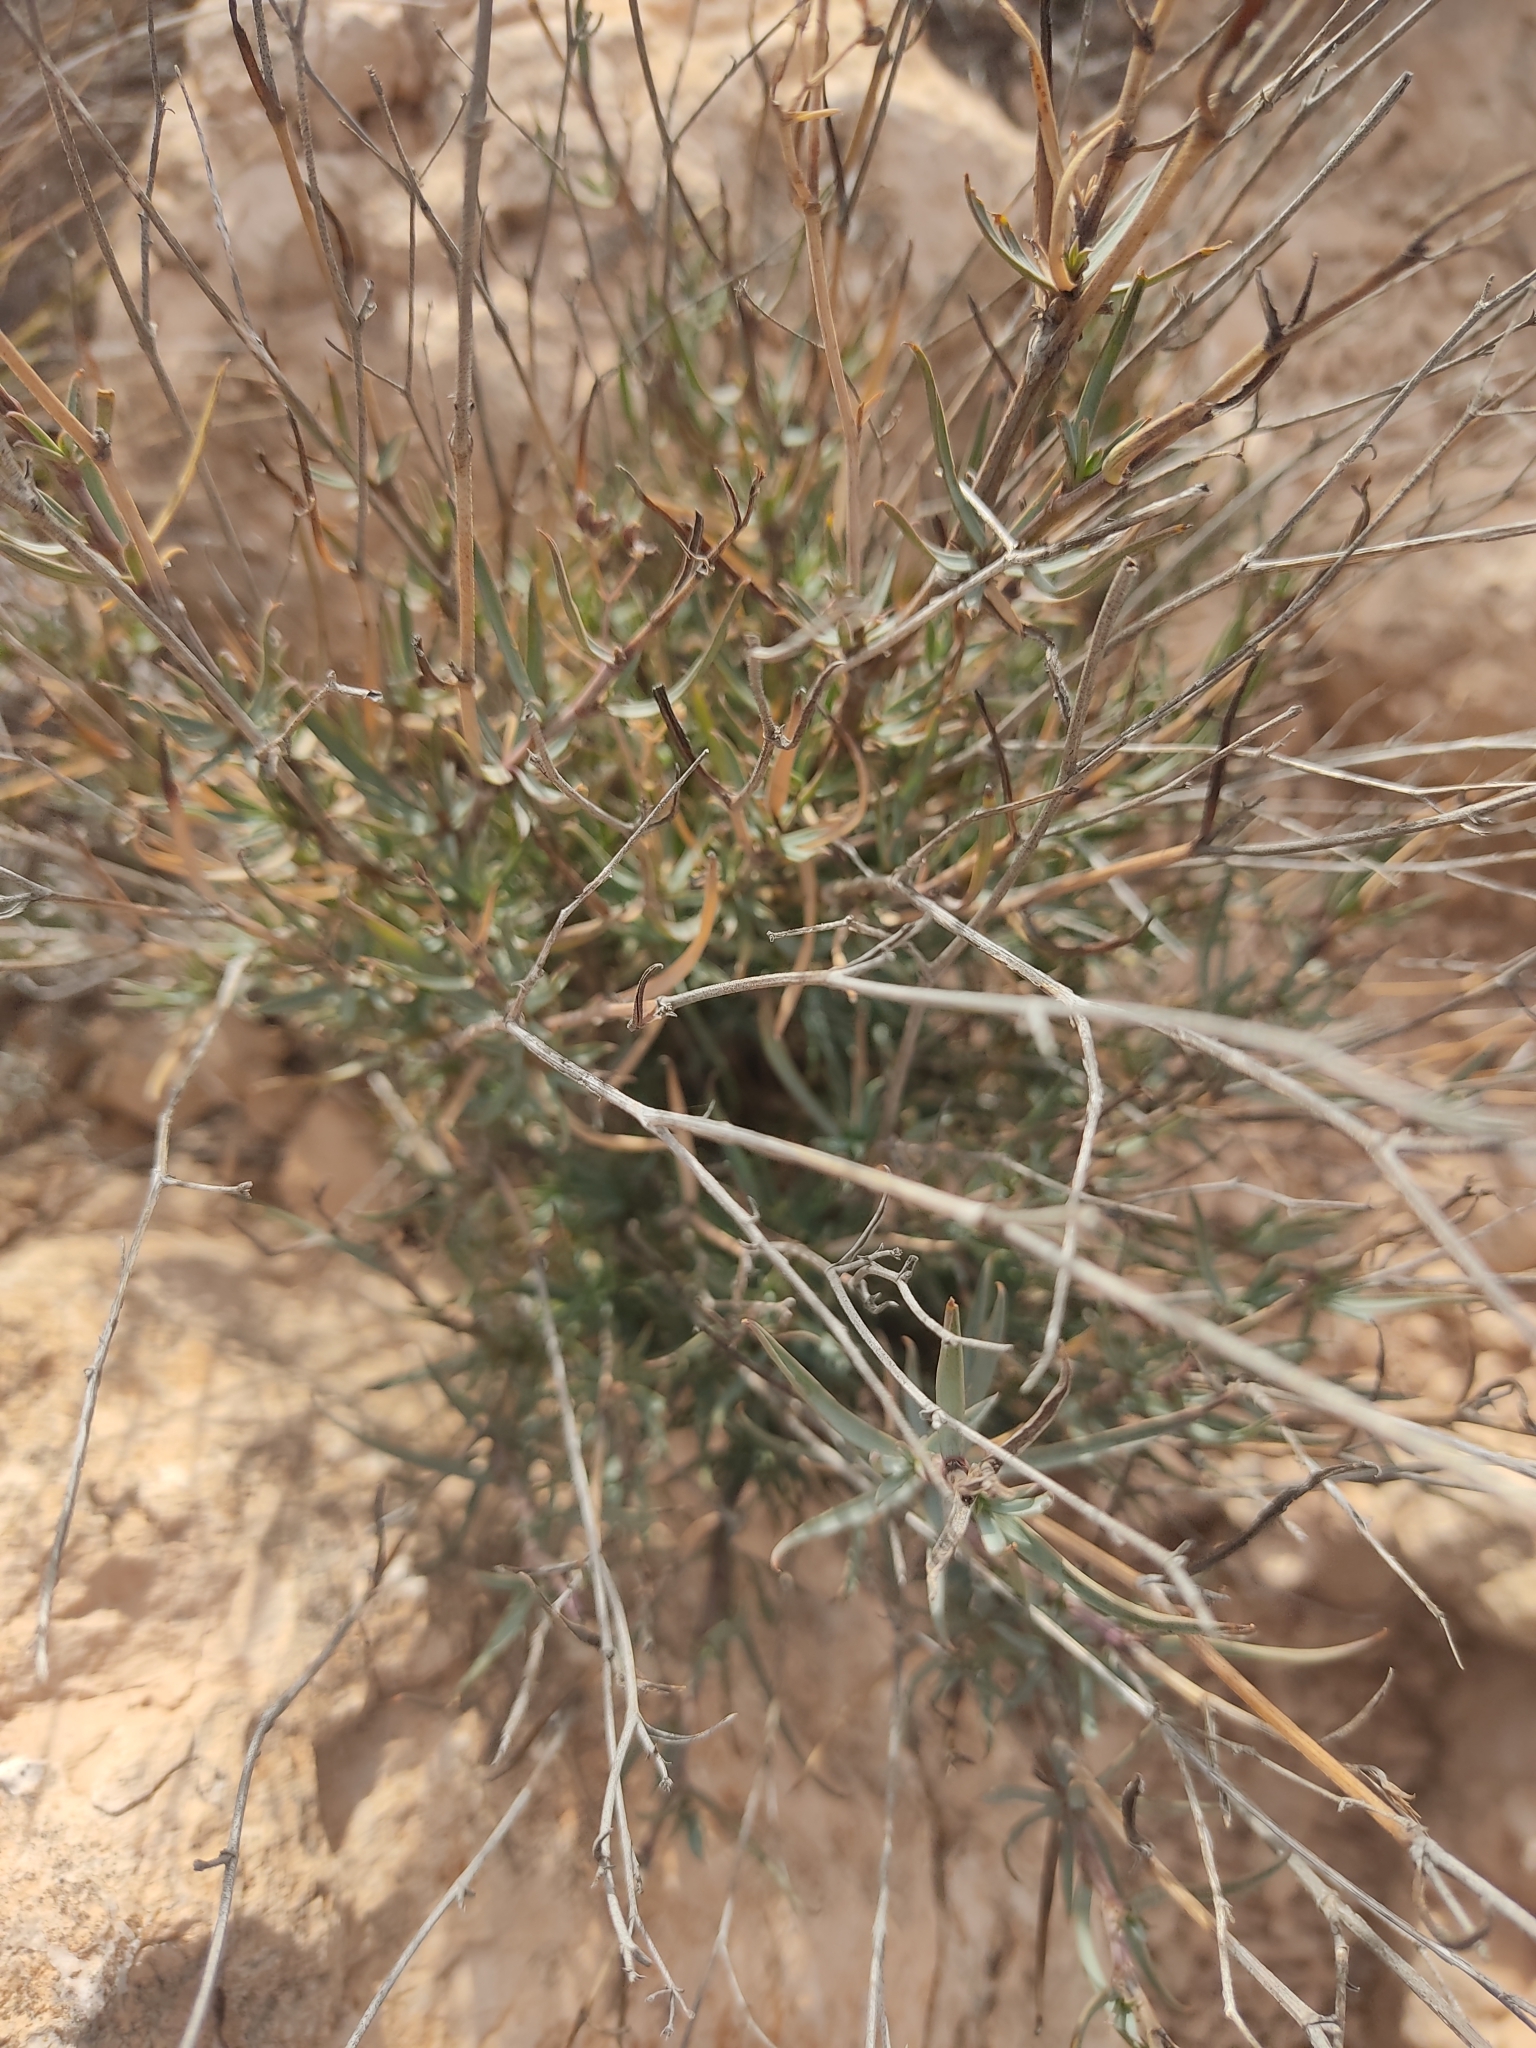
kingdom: Plantae
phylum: Tracheophyta
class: Magnoliopsida
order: Apiales
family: Apiaceae
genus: Bupleurum
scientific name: Bupleurum fruticescens
